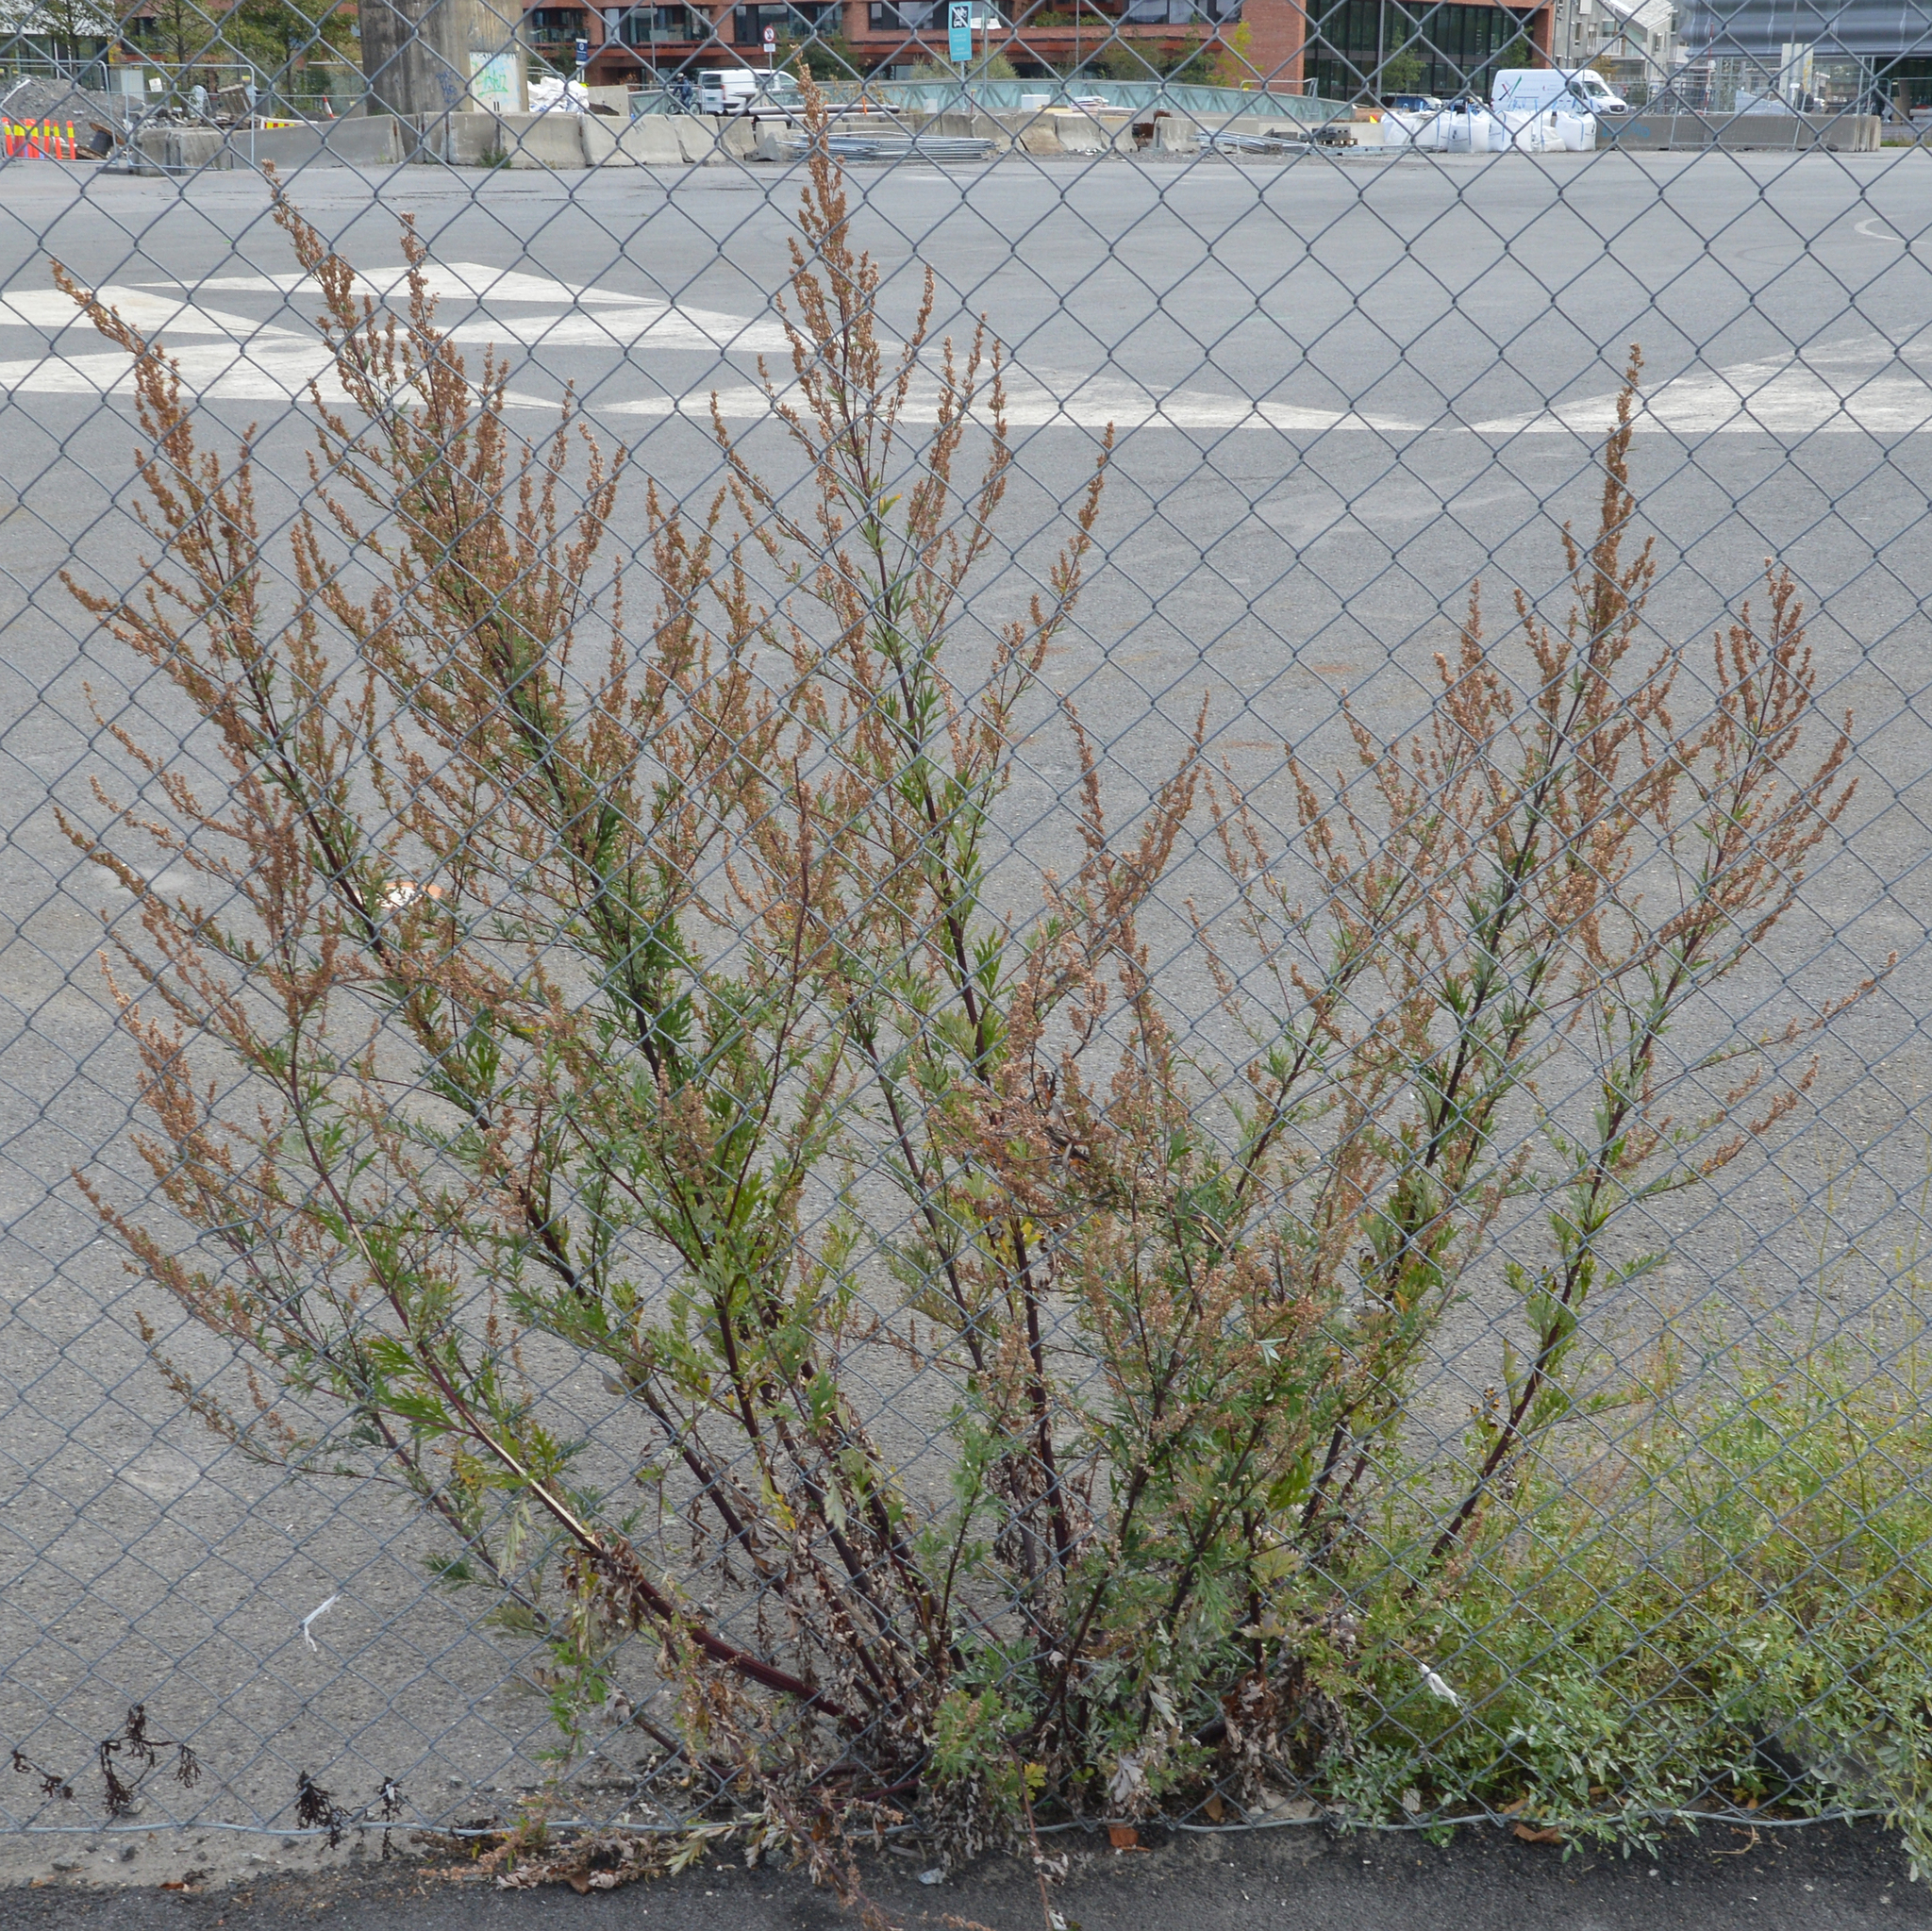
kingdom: Plantae
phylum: Tracheophyta
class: Magnoliopsida
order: Asterales
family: Asteraceae
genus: Artemisia
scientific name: Artemisia vulgaris
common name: Mugwort
